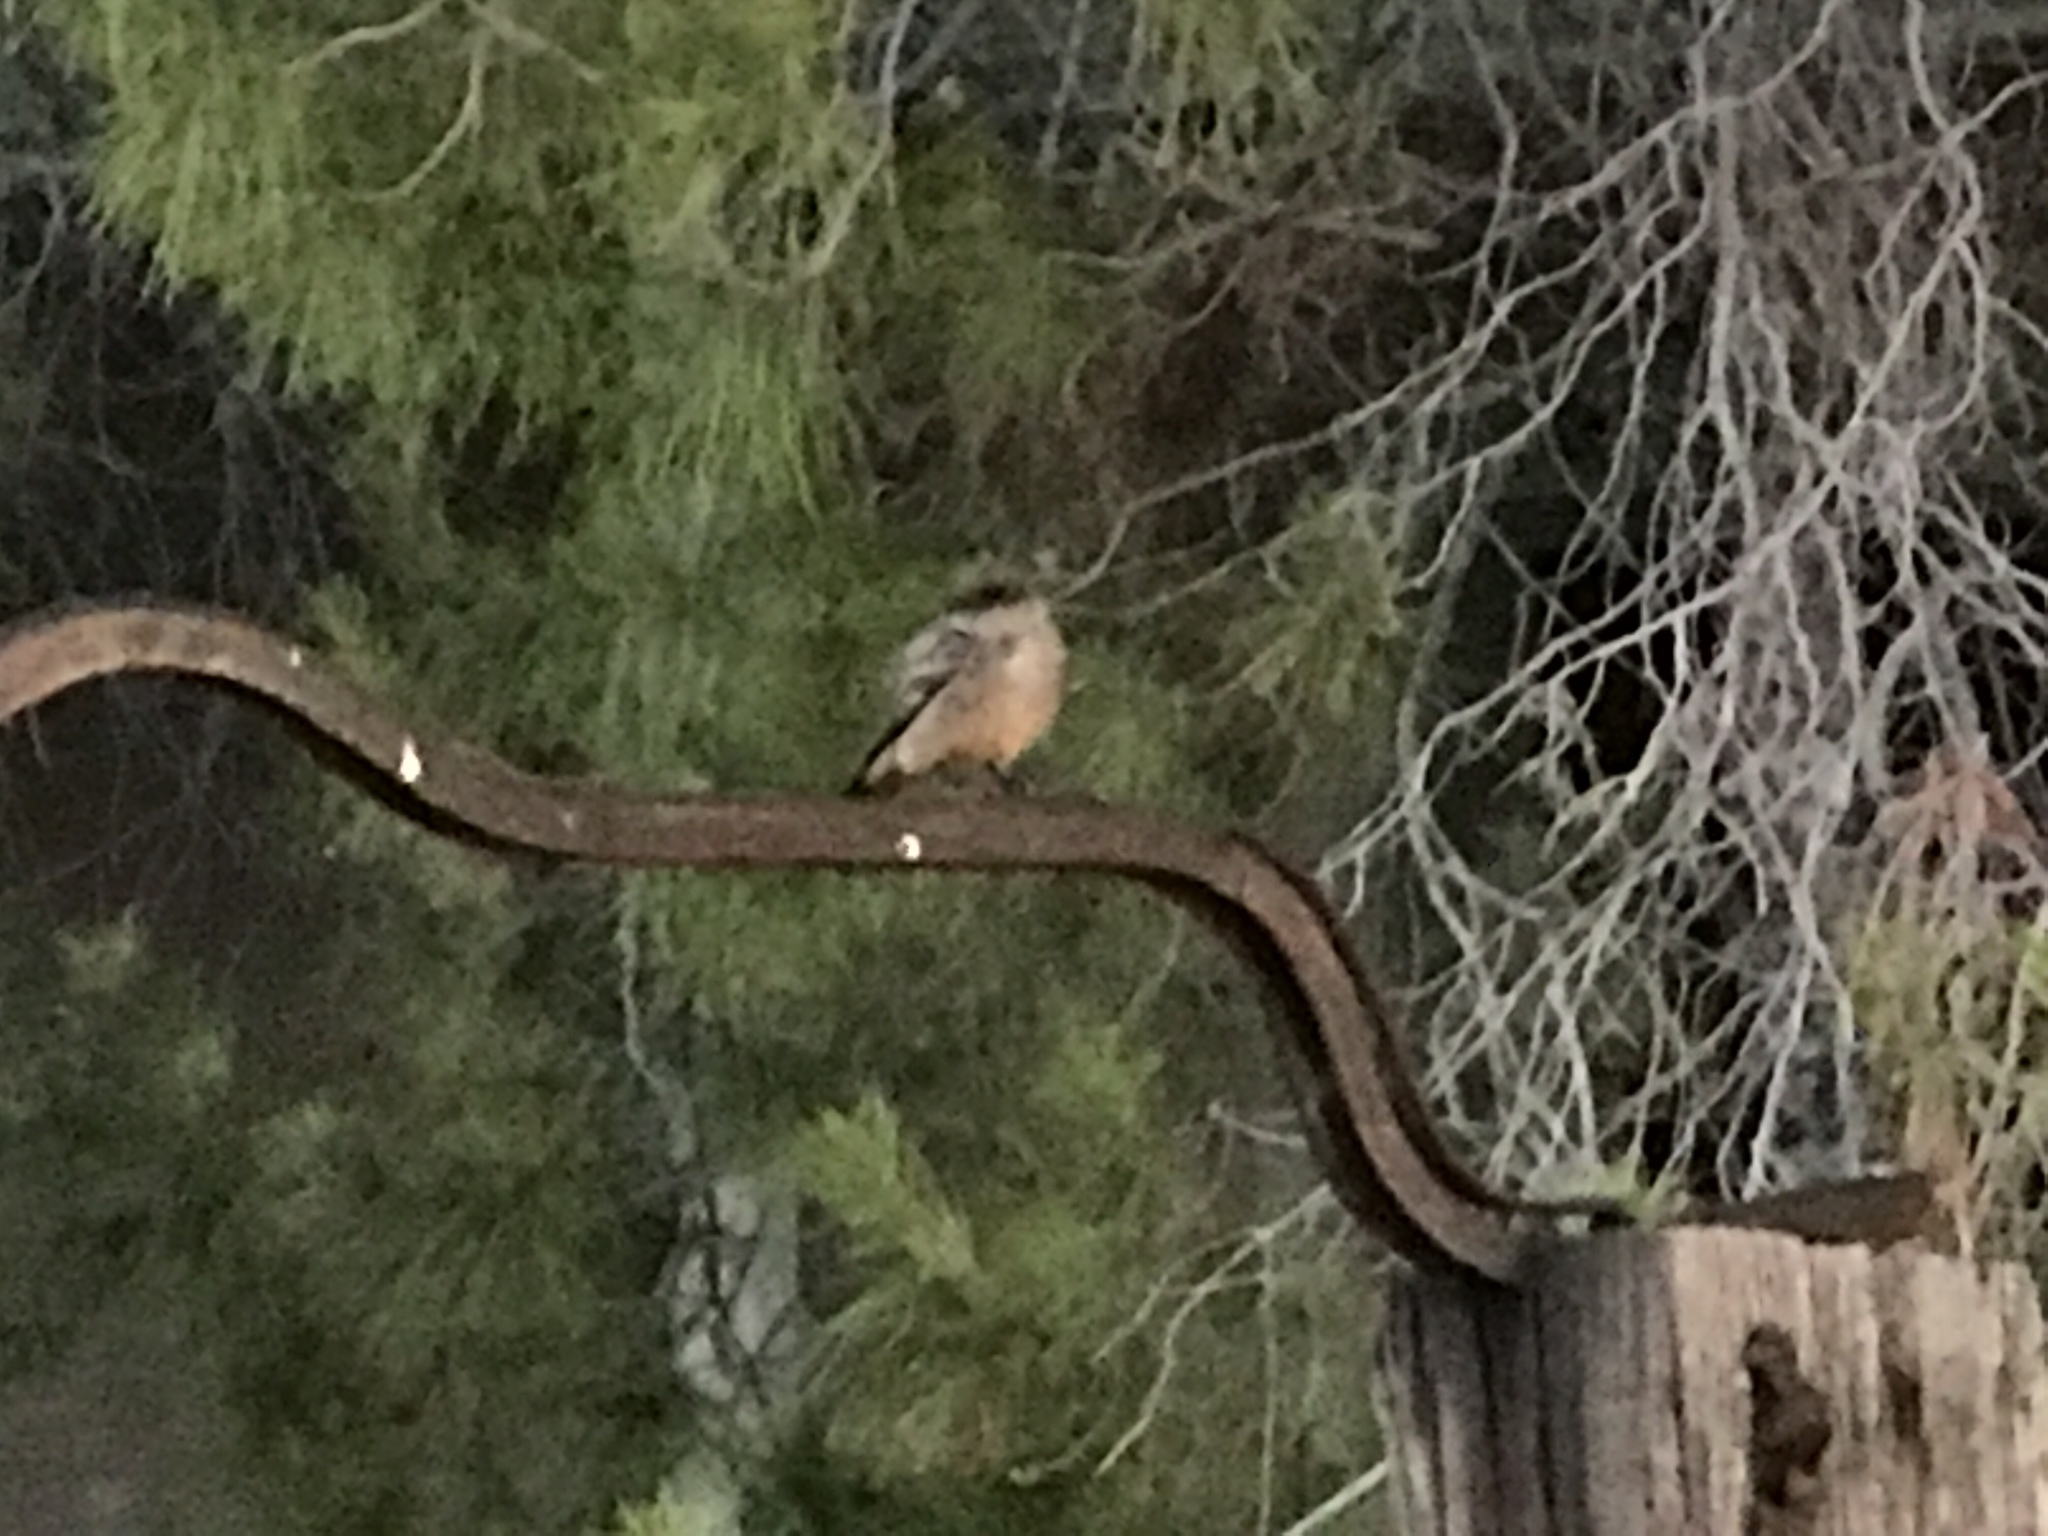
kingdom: Animalia
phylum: Chordata
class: Aves
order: Passeriformes
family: Tyrannidae
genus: Sayornis
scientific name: Sayornis saya
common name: Say's phoebe
